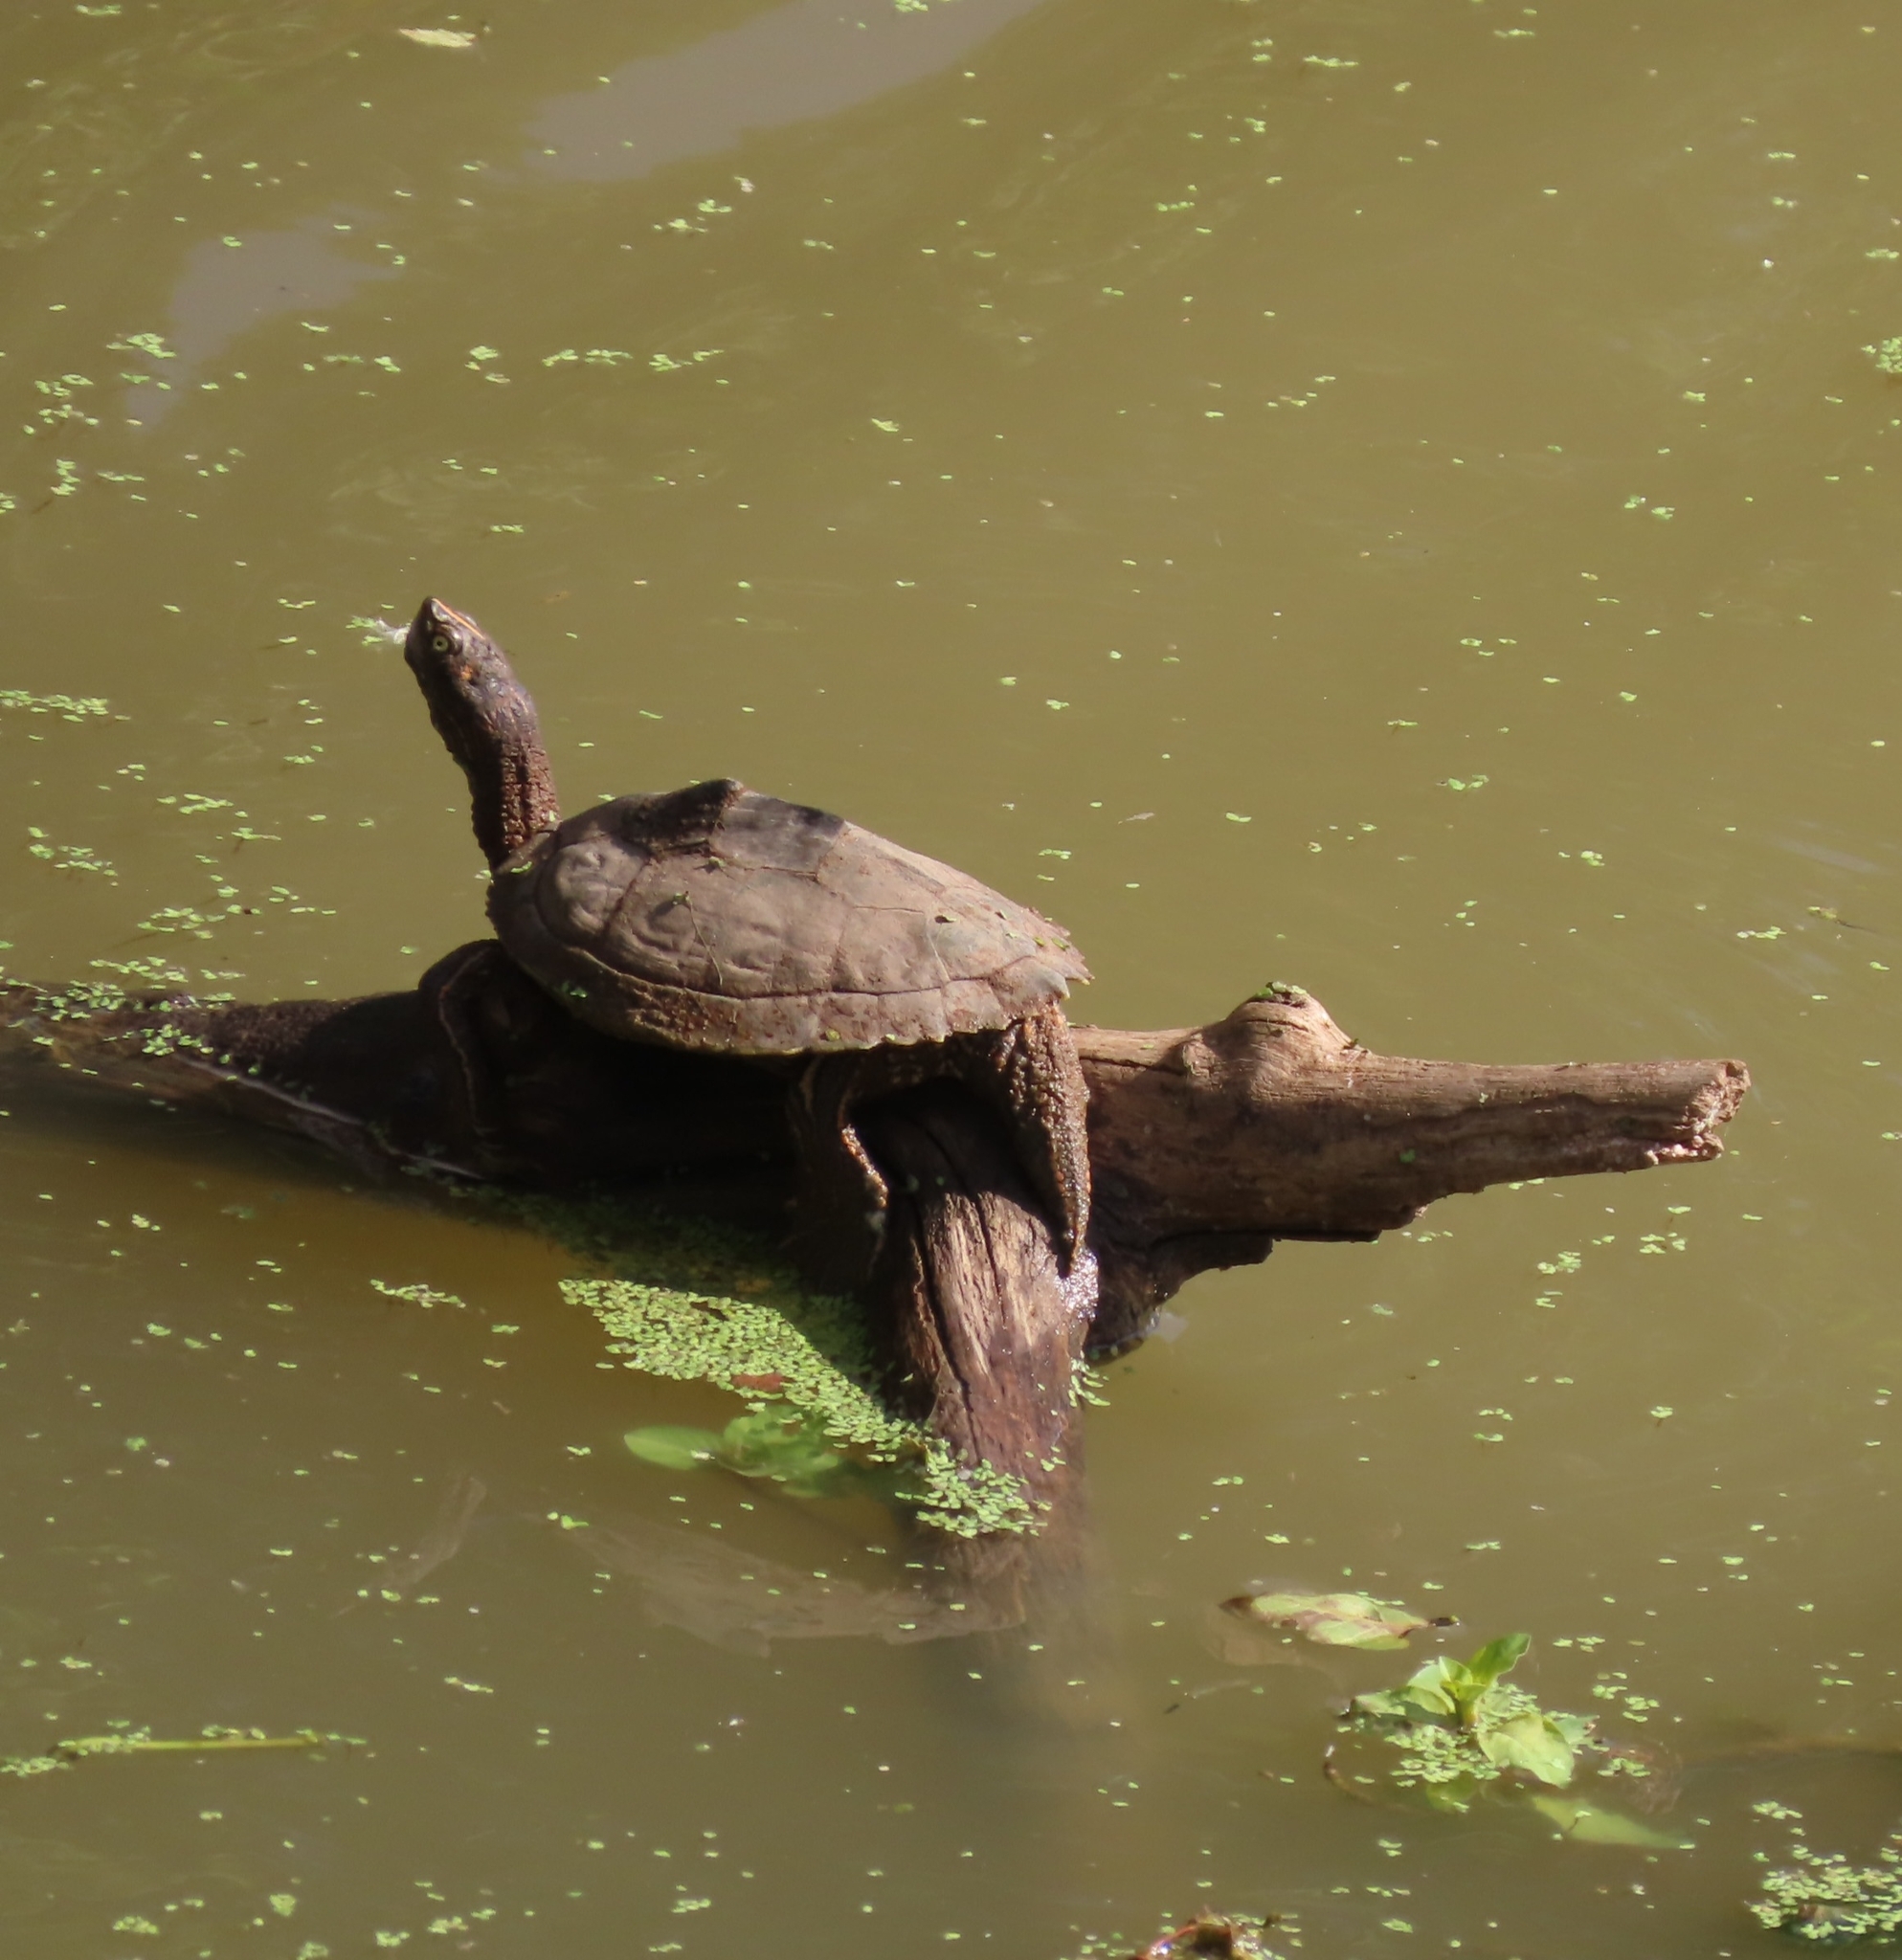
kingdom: Animalia
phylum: Chordata
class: Testudines
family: Emydidae
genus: Graptemys
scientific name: Graptemys pseudogeographica
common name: False map turtle
